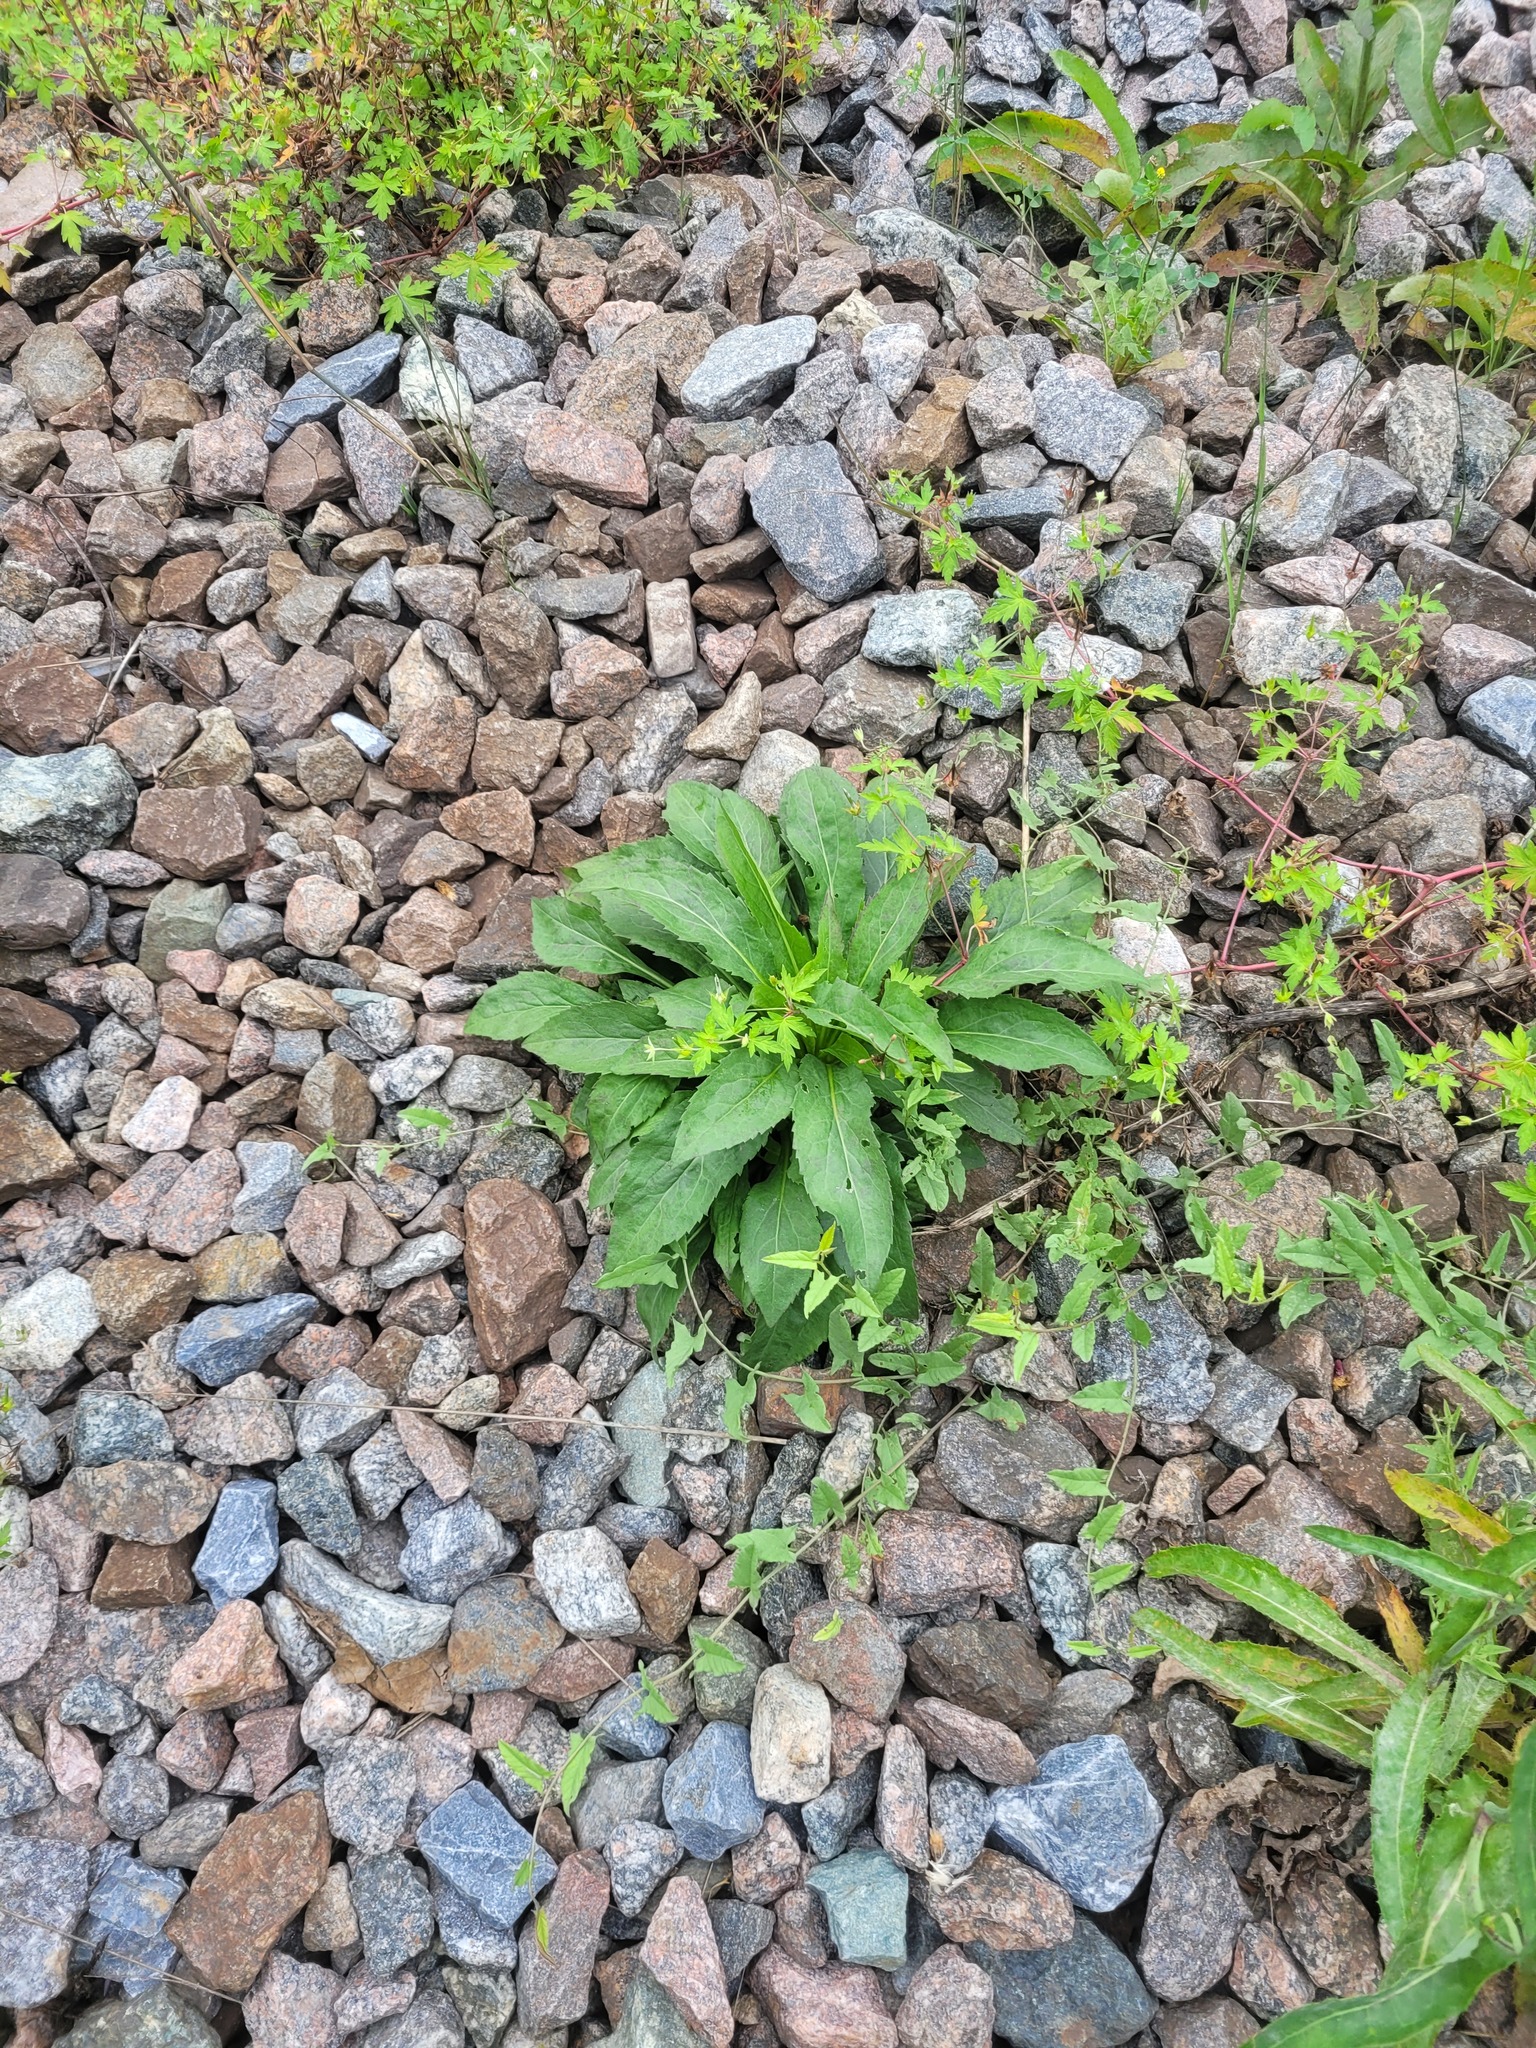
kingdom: Plantae
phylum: Tracheophyta
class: Magnoliopsida
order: Asterales
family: Asteraceae
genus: Solidago
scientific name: Solidago virgaurea
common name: Goldenrod
